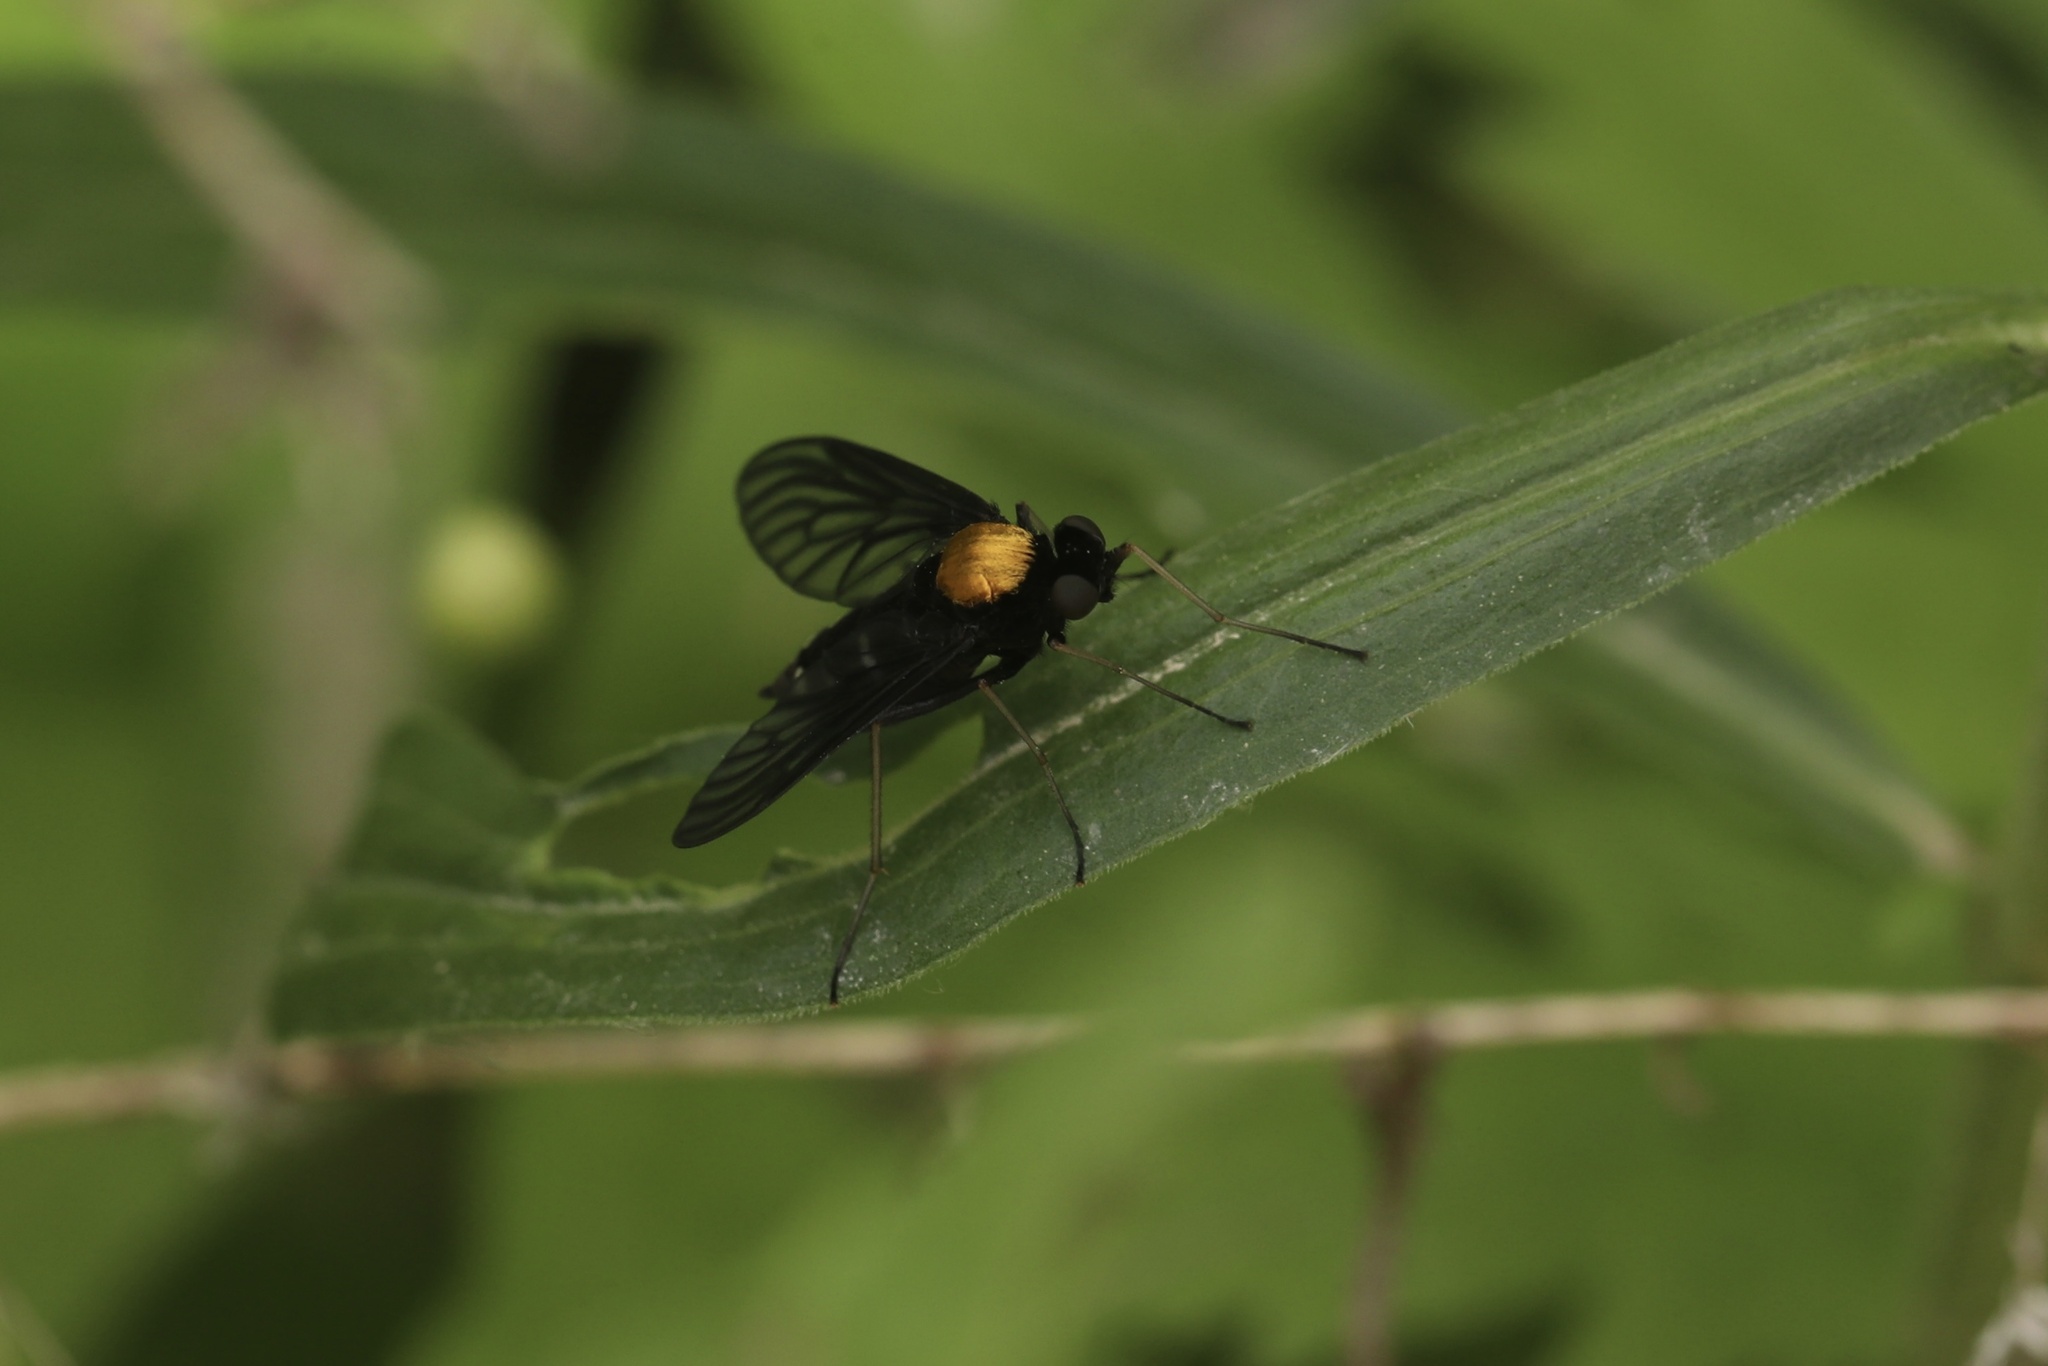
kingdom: Animalia
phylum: Arthropoda
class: Insecta
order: Diptera
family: Rhagionidae
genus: Chrysopilus
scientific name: Chrysopilus thoracicus
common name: Golden-backed snipe fly
